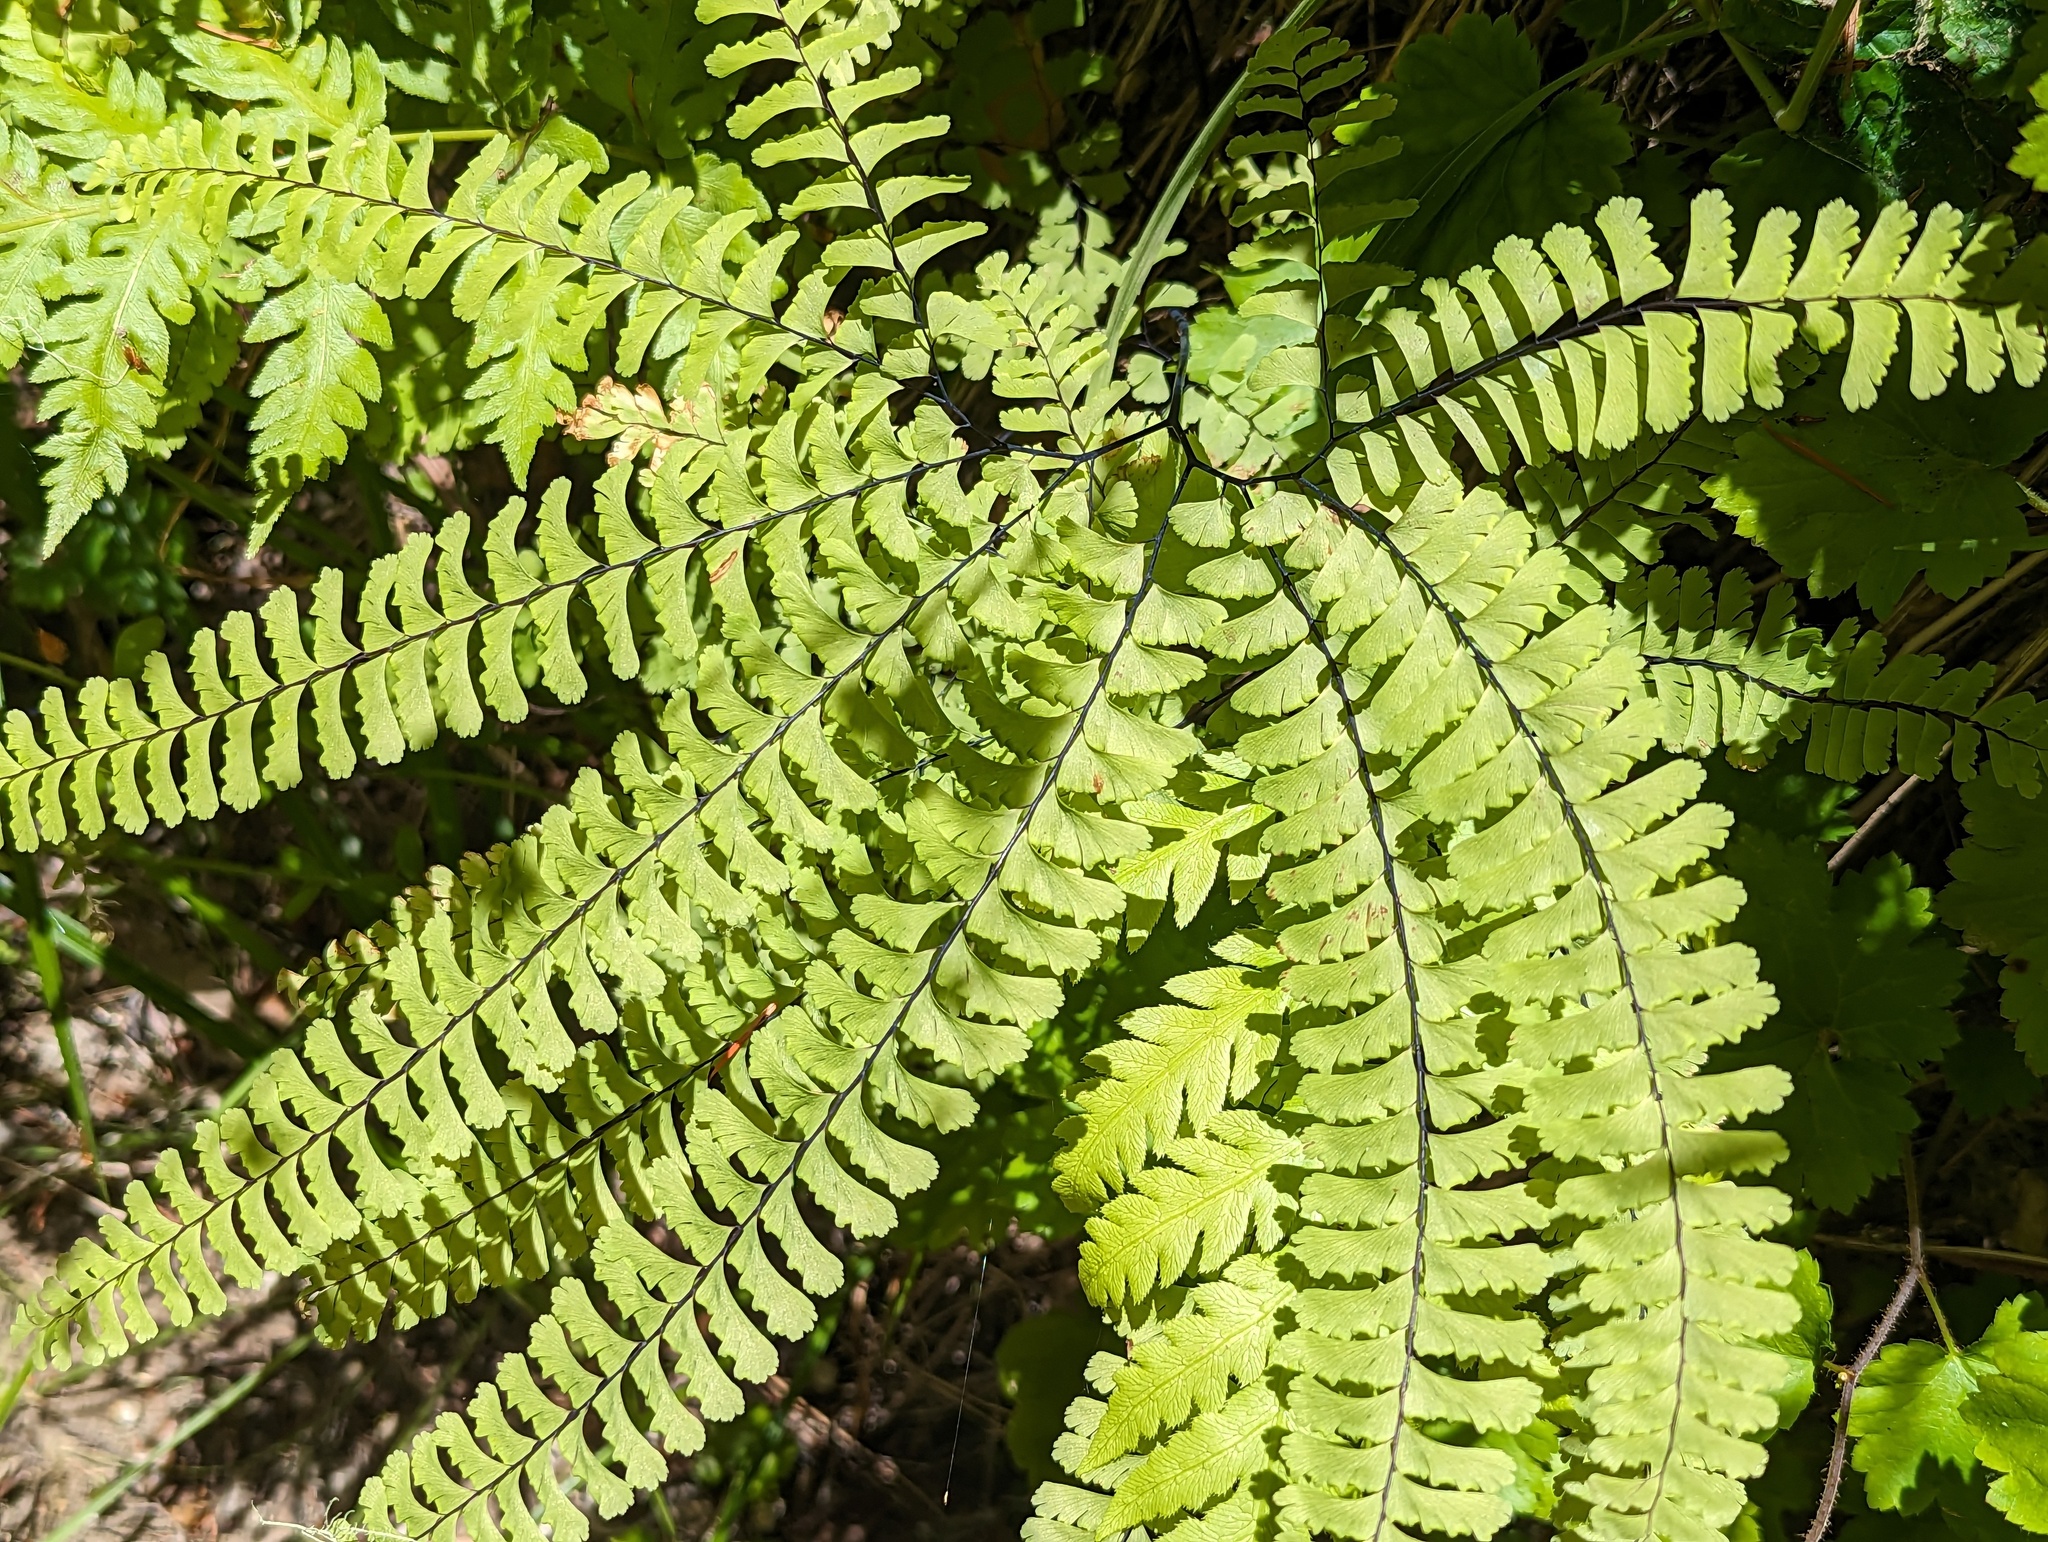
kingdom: Plantae
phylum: Tracheophyta
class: Polypodiopsida
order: Polypodiales
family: Pteridaceae
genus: Adiantum
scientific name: Adiantum aleuticum
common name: Aleutian maidenhair fern
